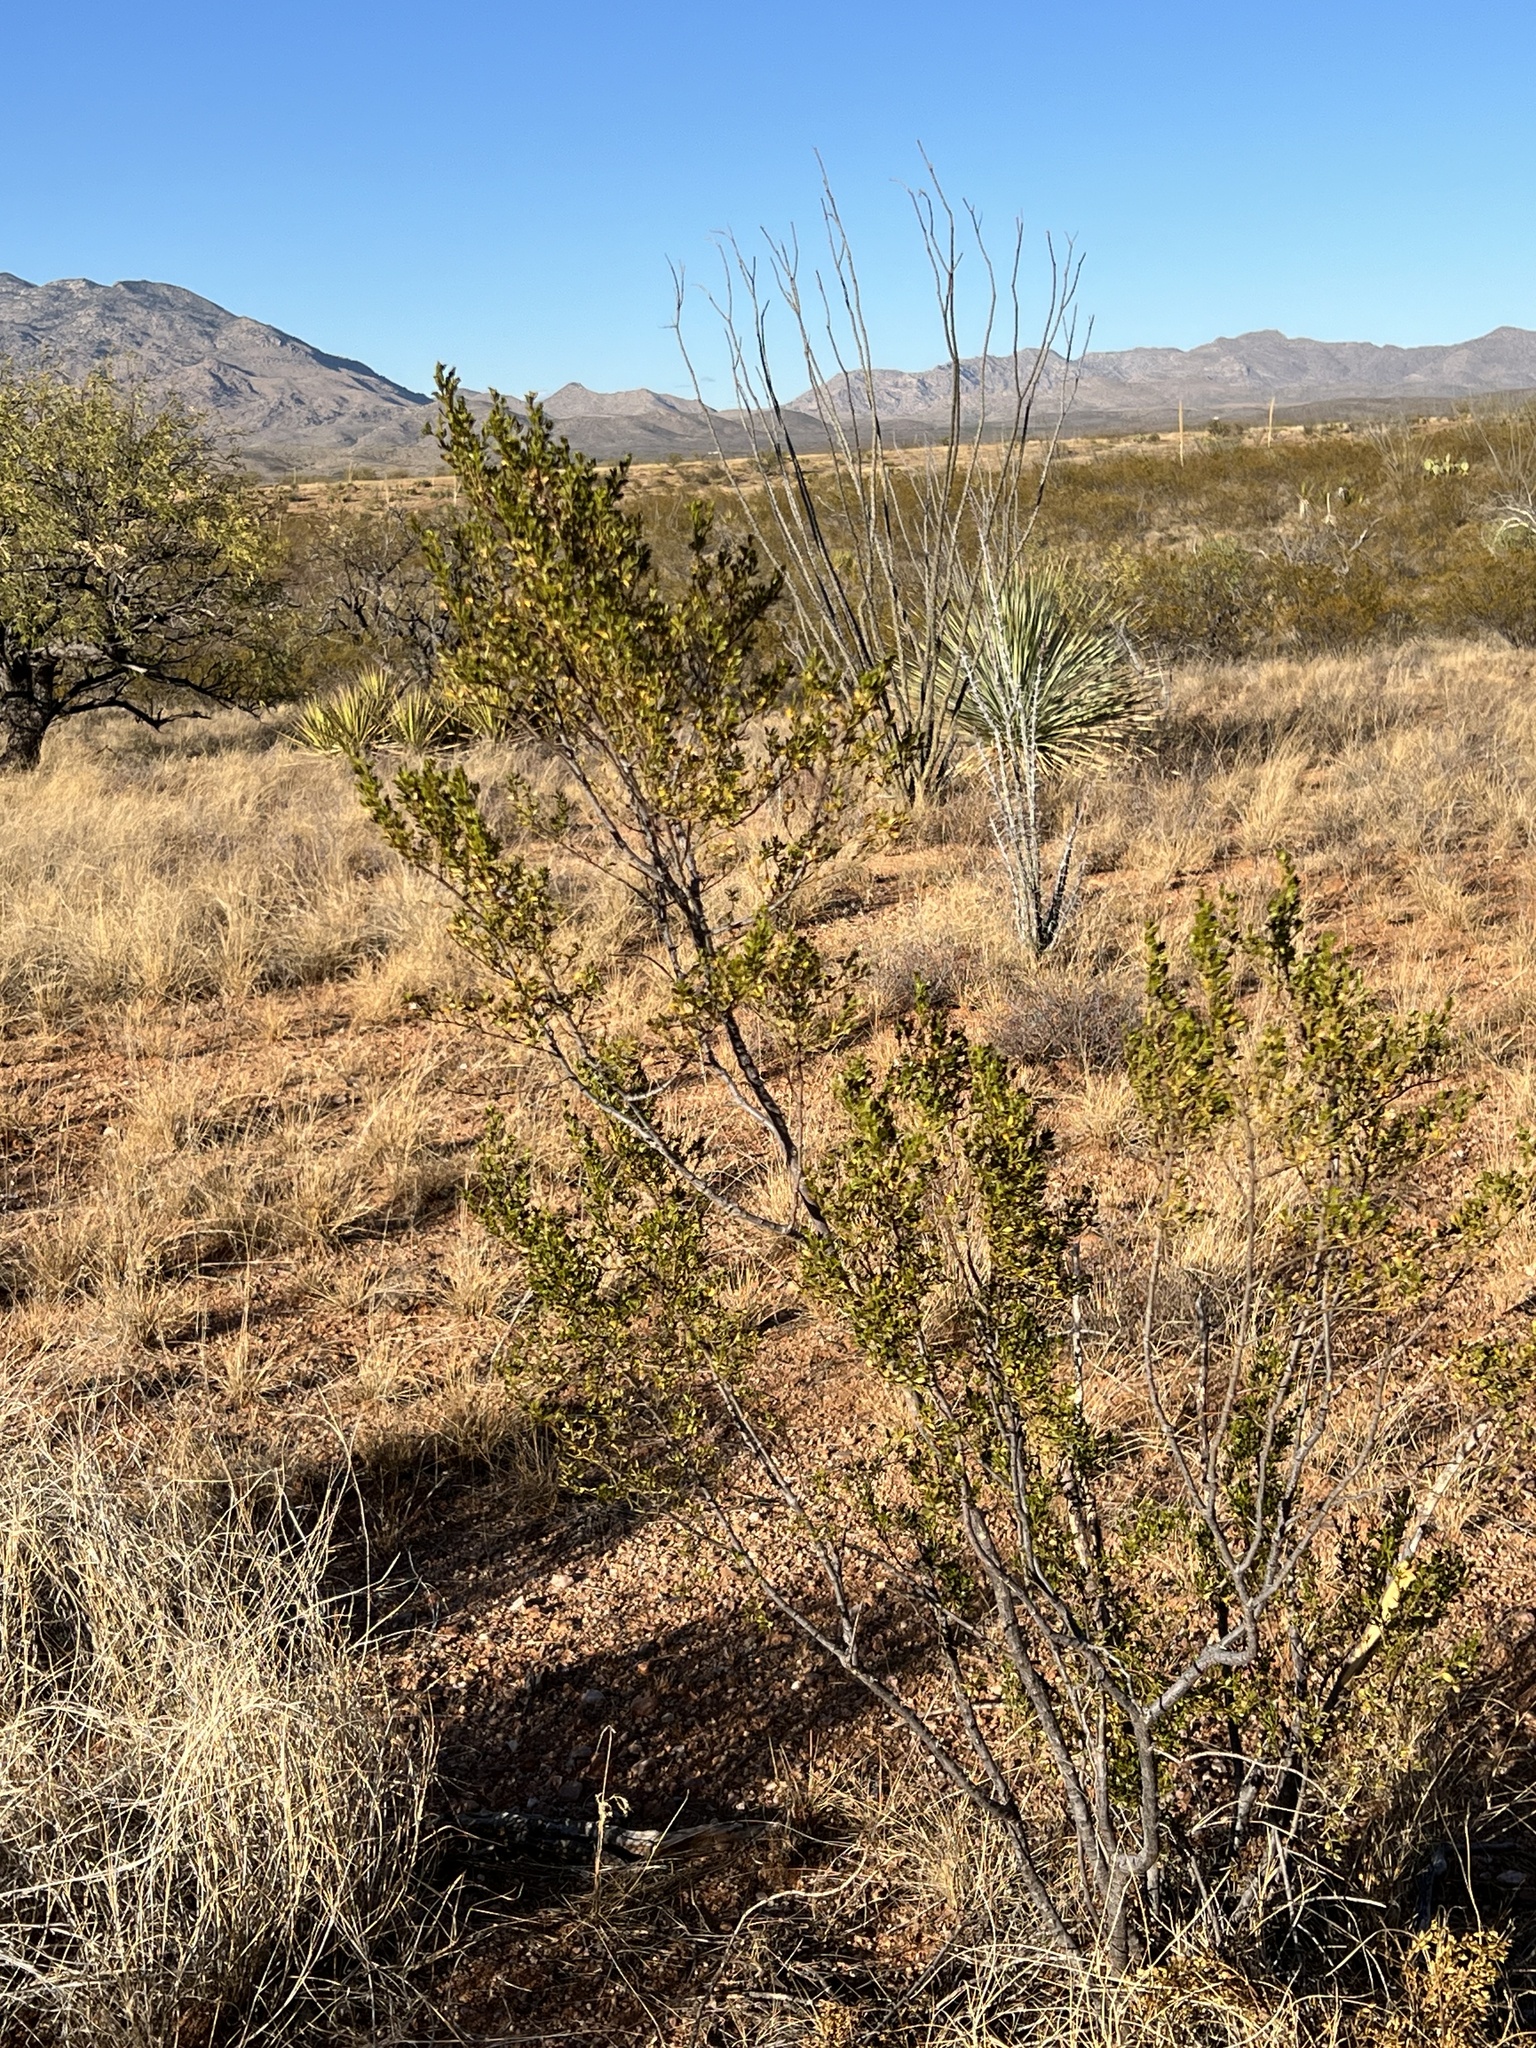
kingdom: Plantae
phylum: Tracheophyta
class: Magnoliopsida
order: Zygophyllales
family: Zygophyllaceae
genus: Larrea
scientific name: Larrea tridentata
